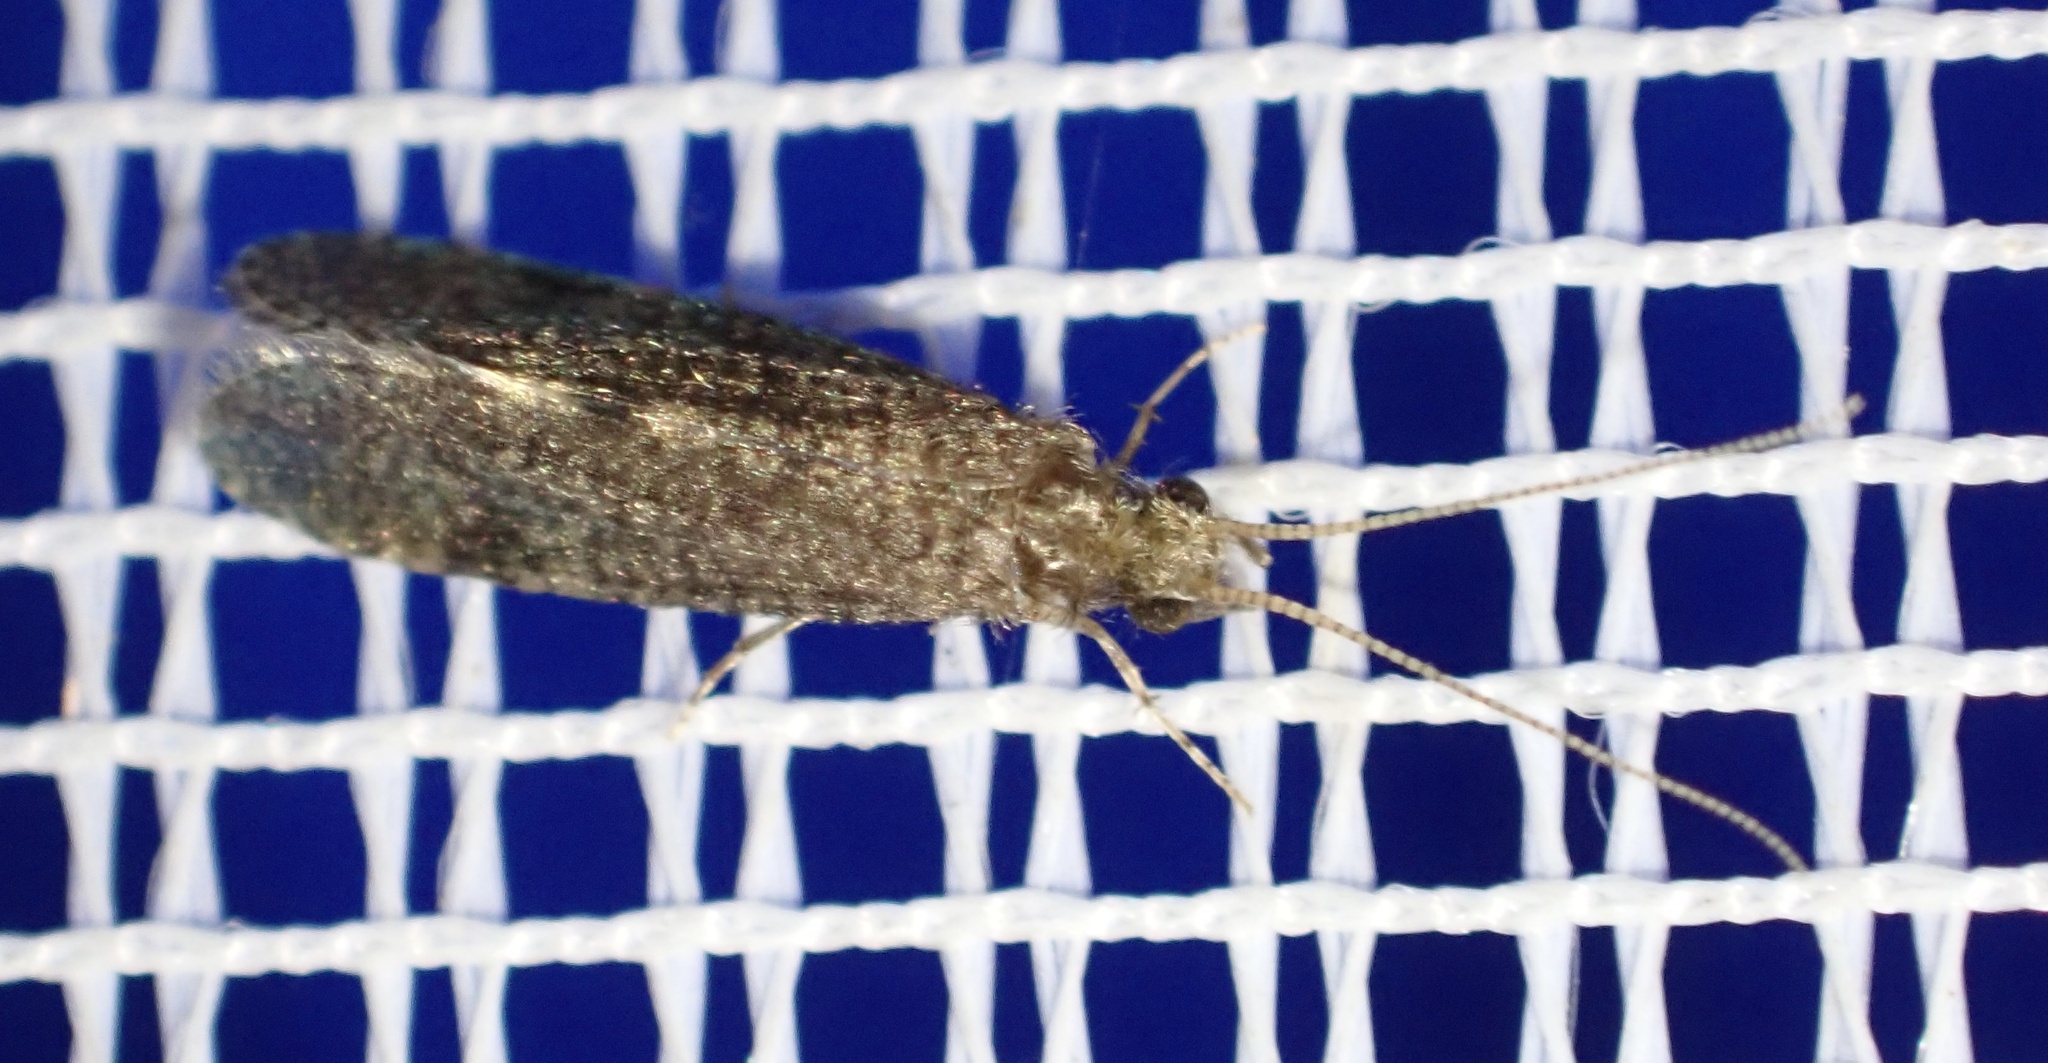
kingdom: Animalia
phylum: Arthropoda
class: Insecta
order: Trichoptera
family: Ecnomidae
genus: Ecnomus
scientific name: Ecnomus tenellus
